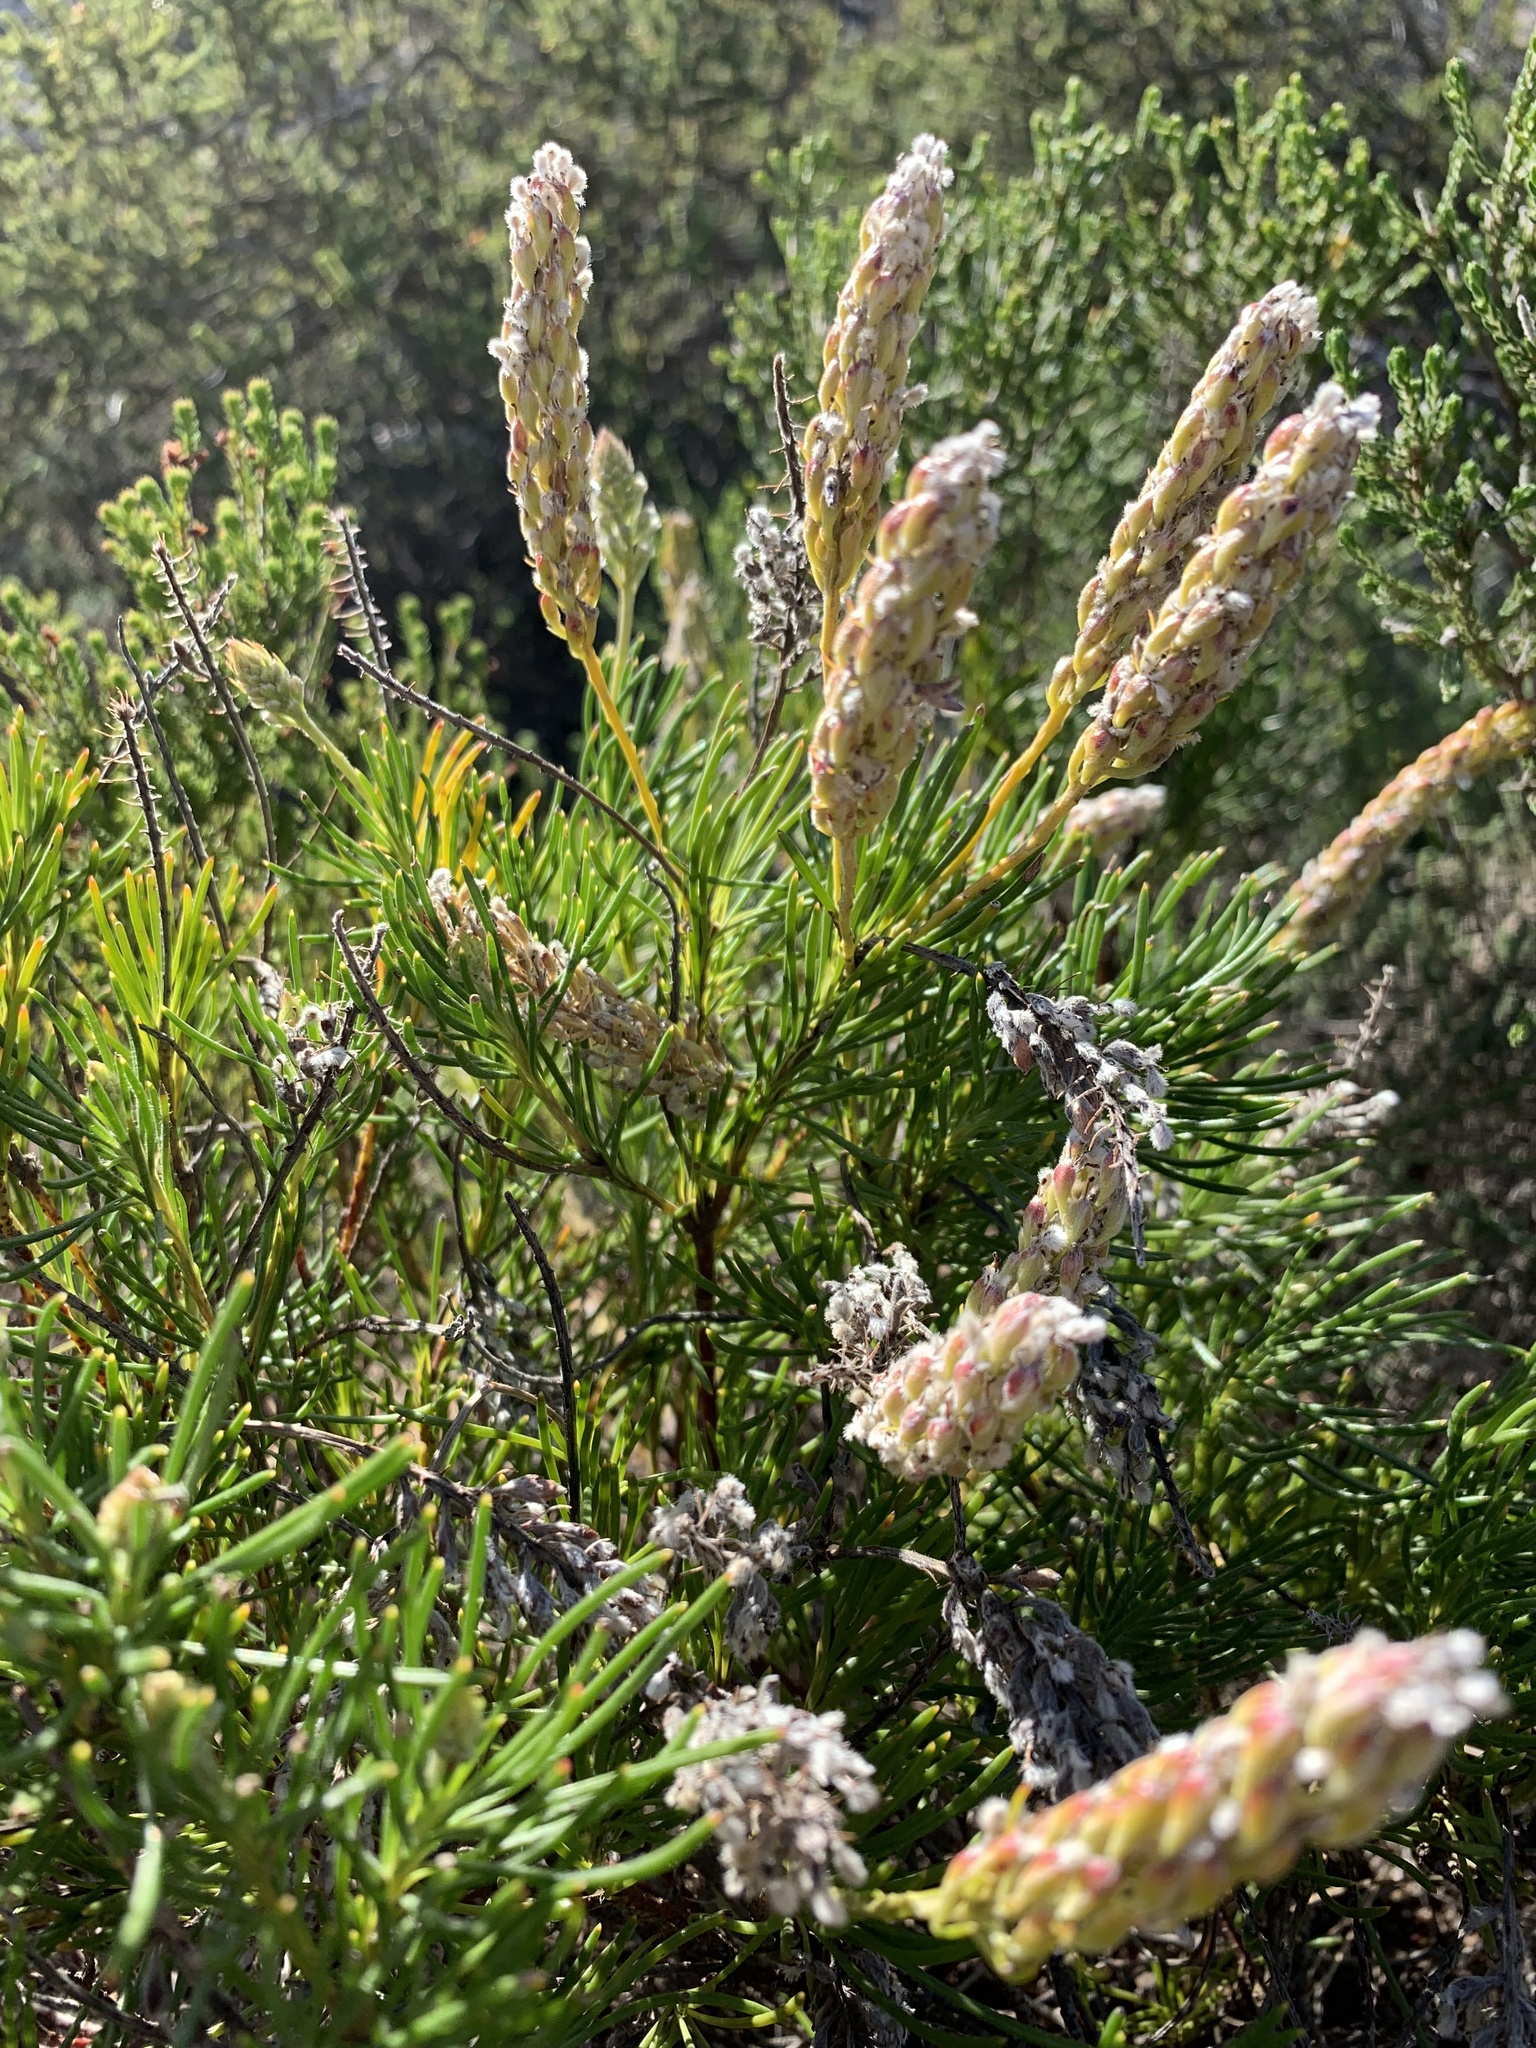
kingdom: Plantae
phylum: Tracheophyta
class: Magnoliopsida
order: Proteales
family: Proteaceae
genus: Spatalla
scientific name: Spatalla curvifolia
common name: White-stalked spoon
